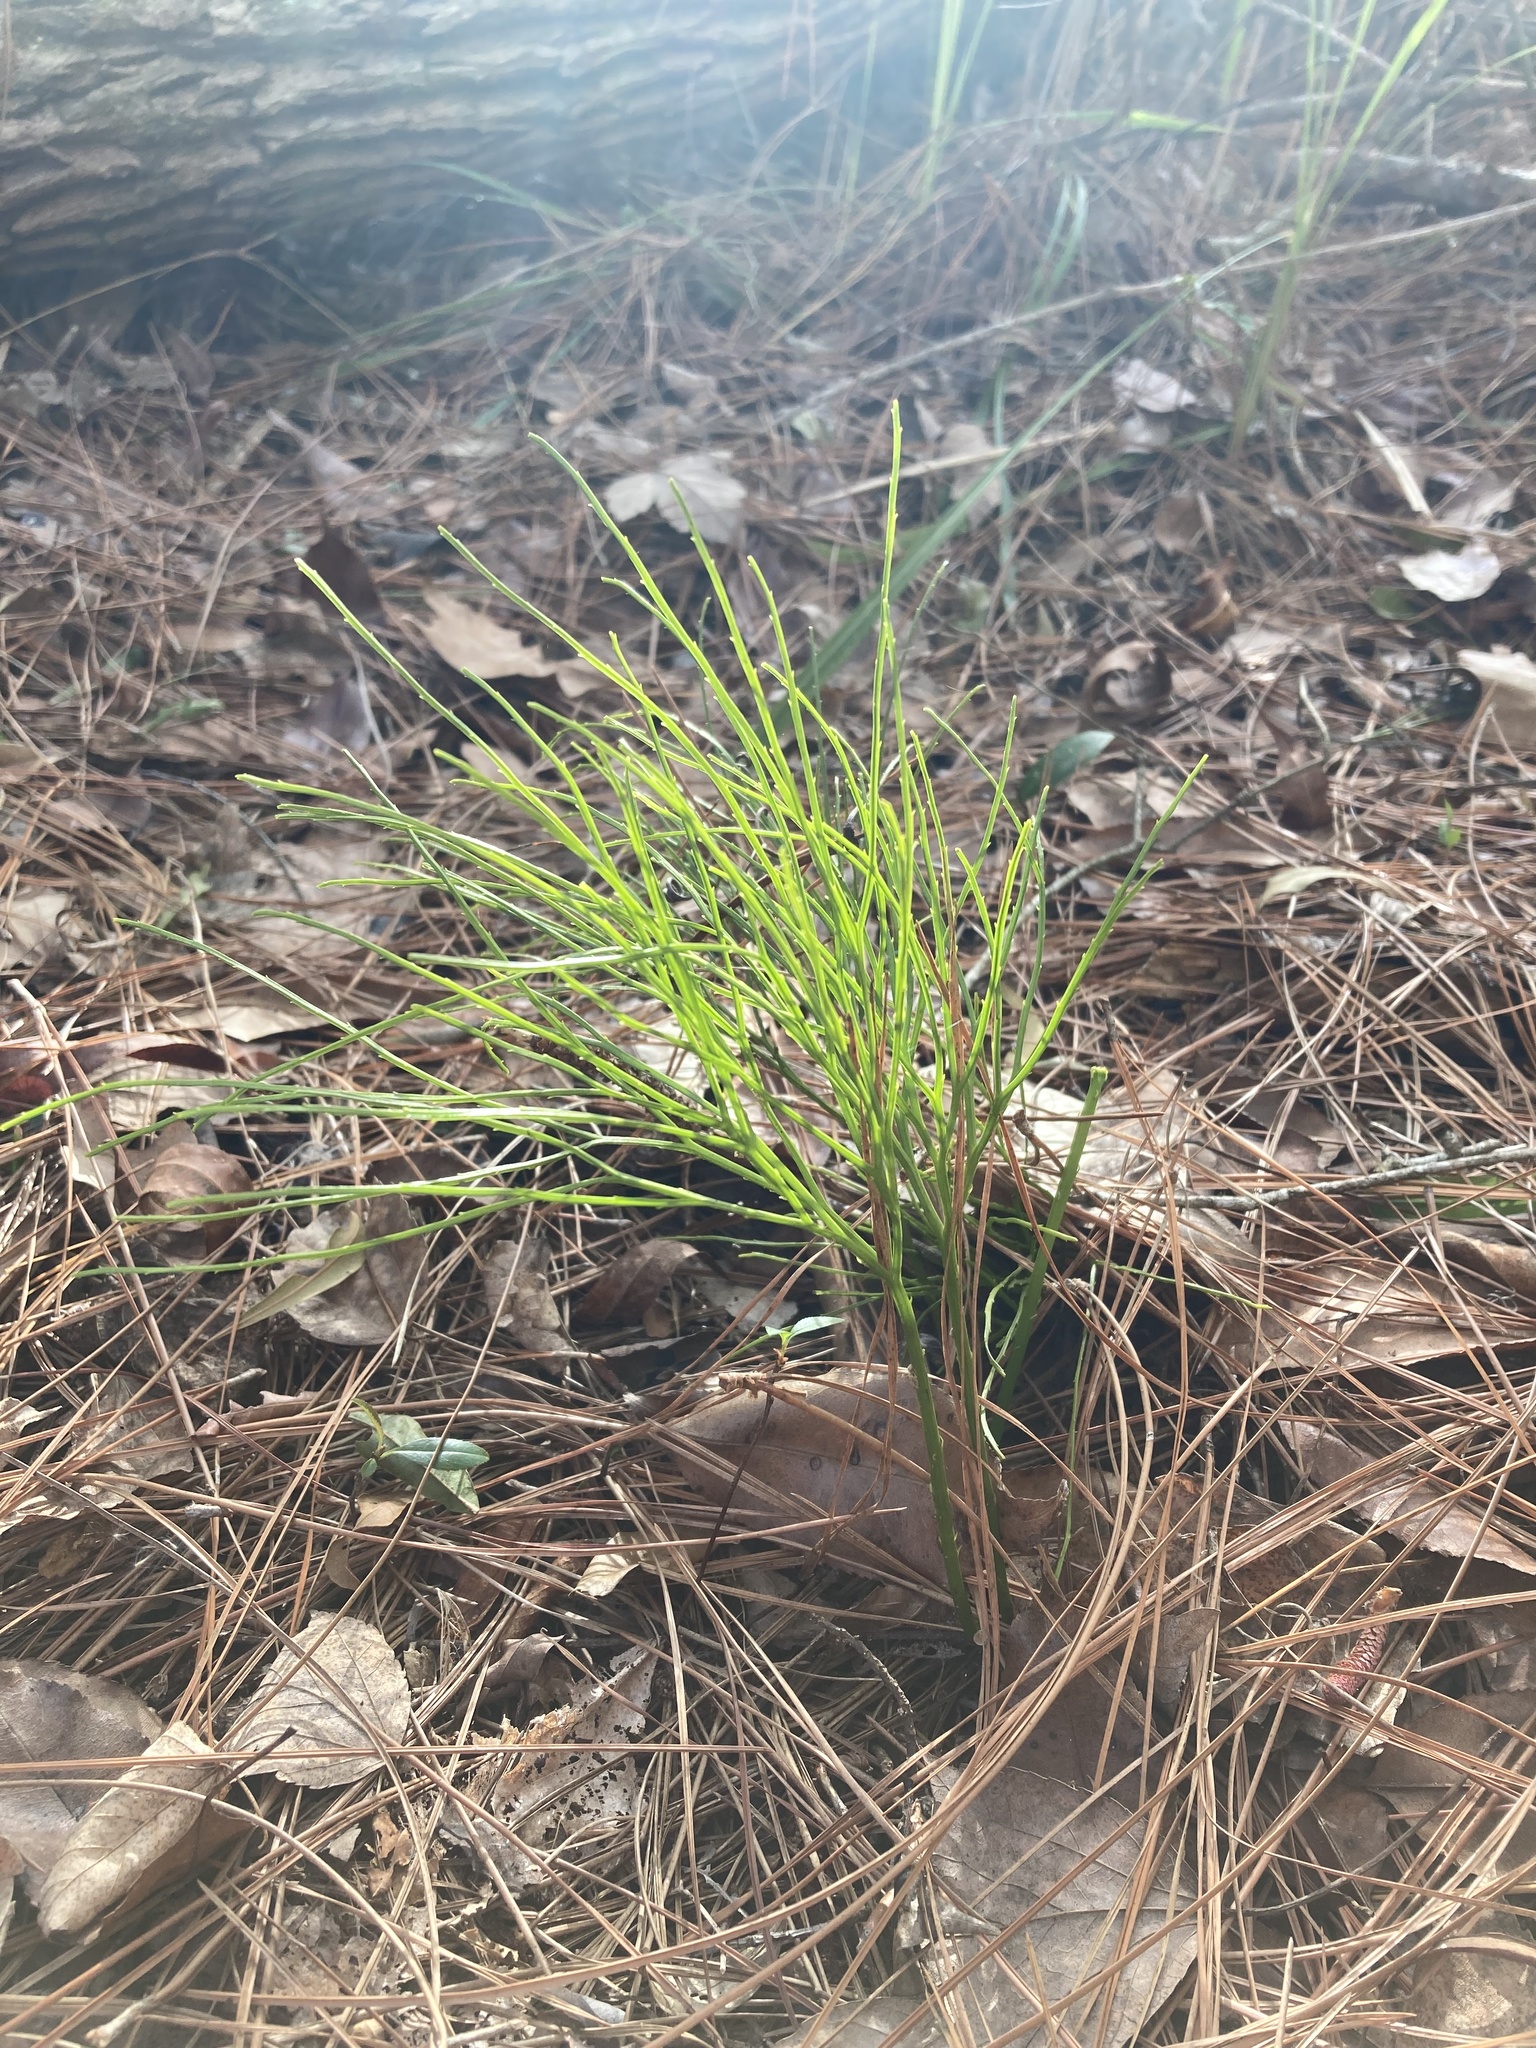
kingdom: Plantae
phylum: Tracheophyta
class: Polypodiopsida
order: Psilotales
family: Psilotaceae
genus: Psilotum
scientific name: Psilotum nudum
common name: Skeleton fork fern
